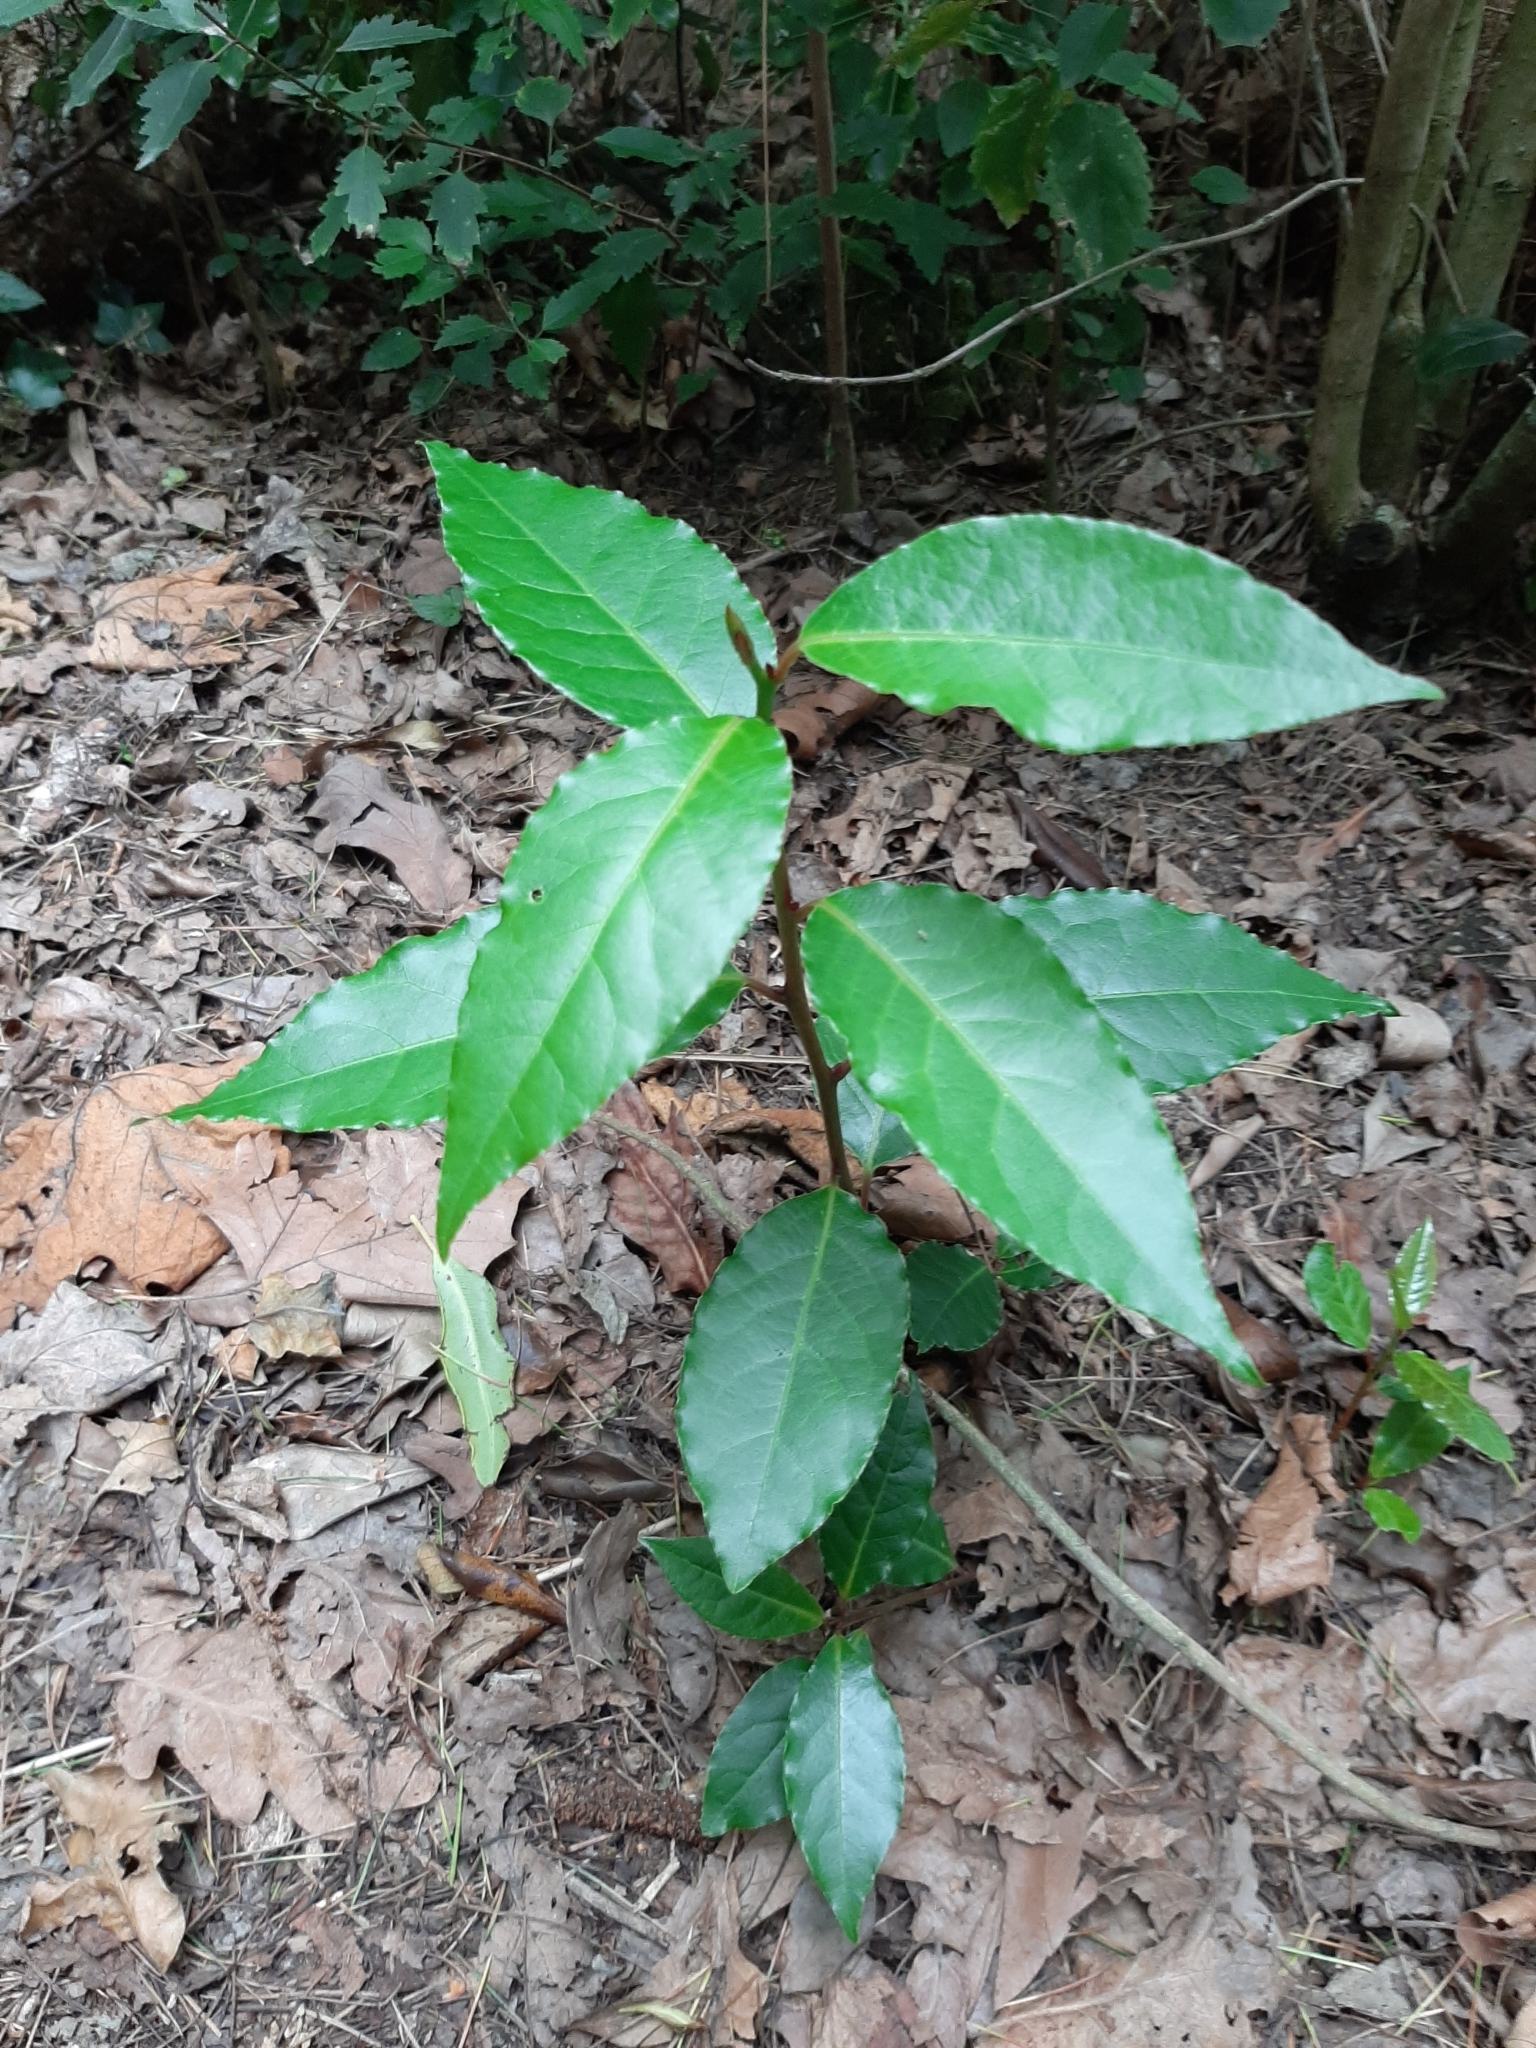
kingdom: Plantae
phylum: Tracheophyta
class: Magnoliopsida
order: Laurales
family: Lauraceae
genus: Laurus
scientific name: Laurus nobilis
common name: Bay
